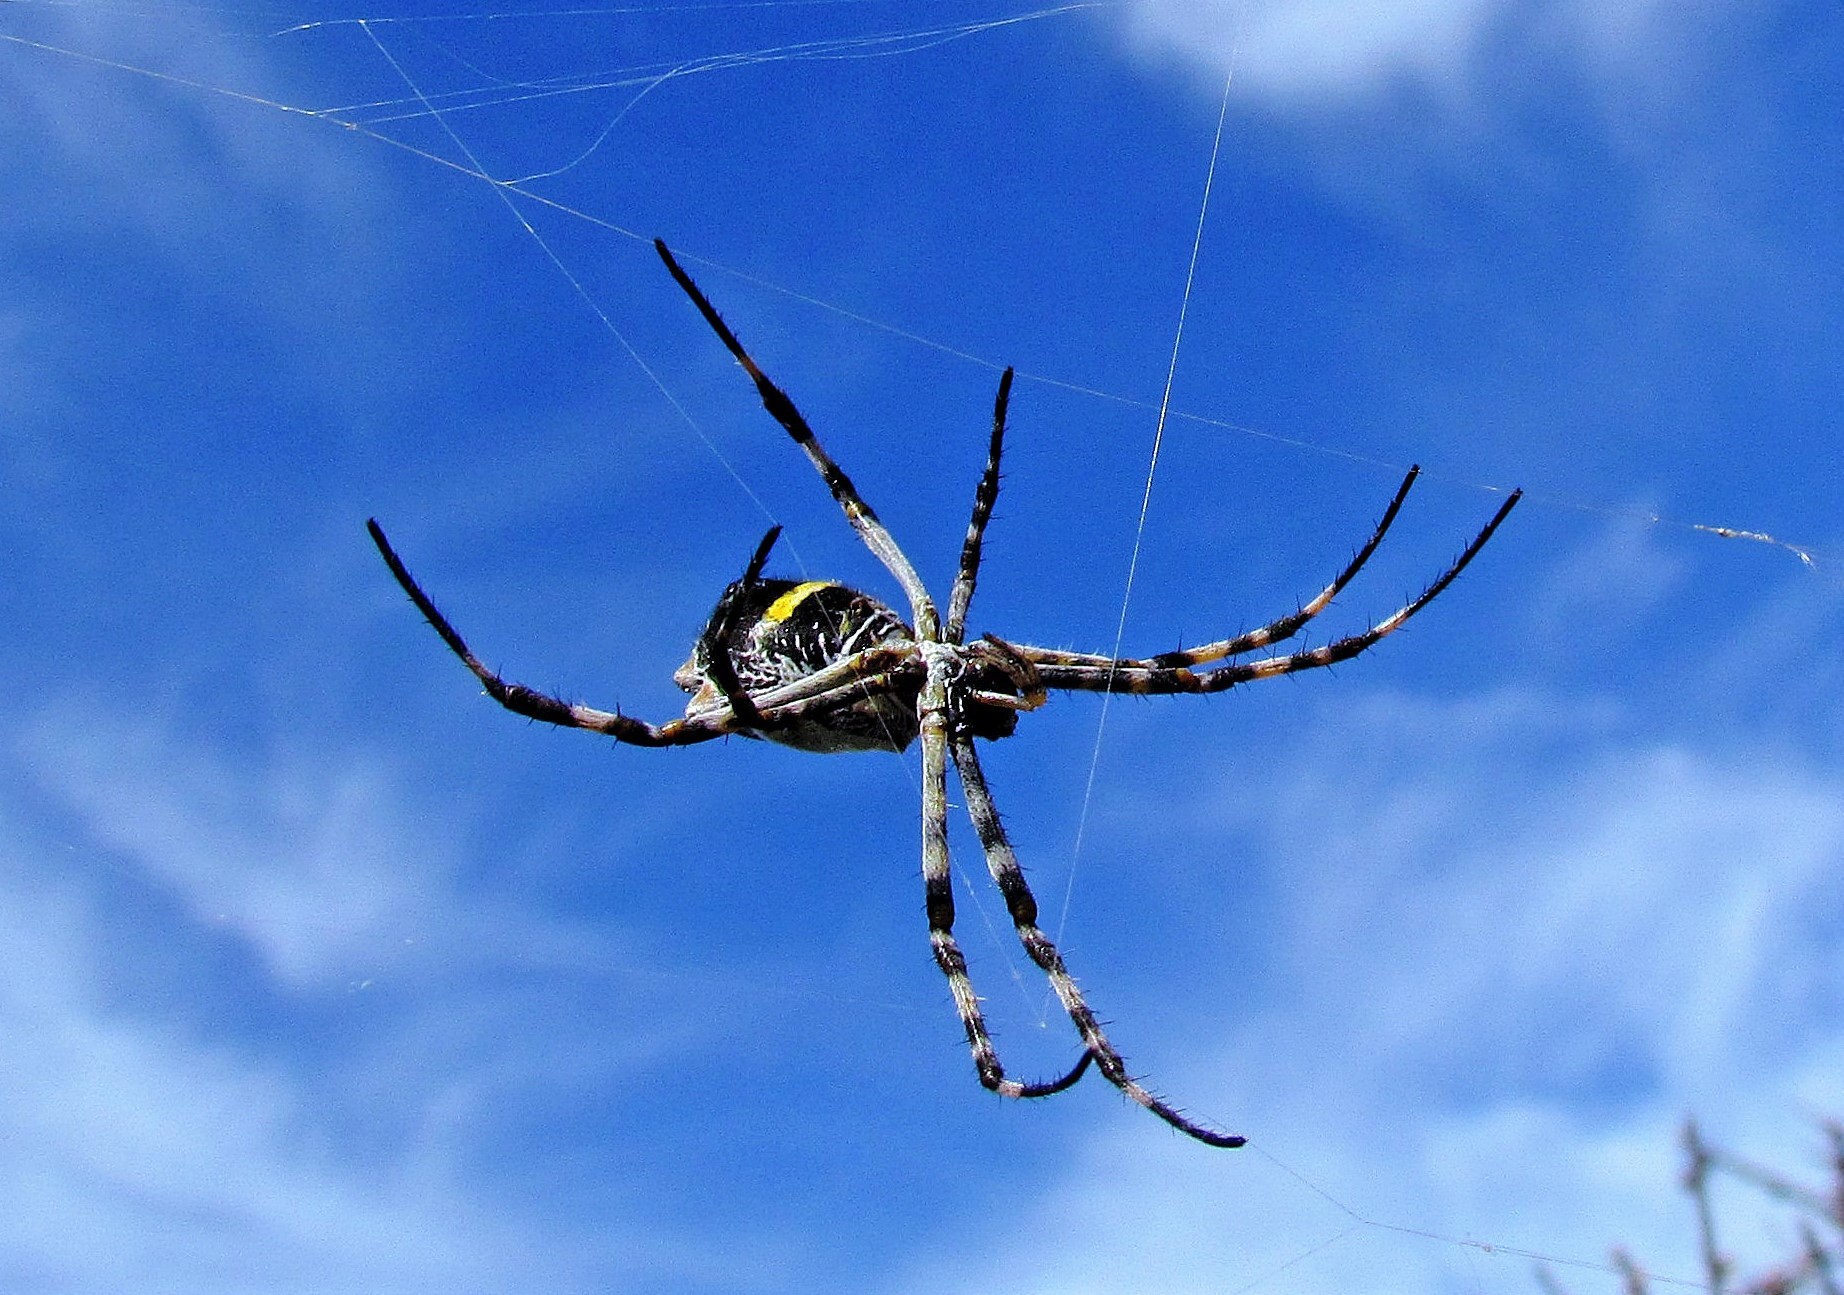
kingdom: Animalia
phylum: Arthropoda
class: Arachnida
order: Araneae
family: Araneidae
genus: Argiope
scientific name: Argiope argentata
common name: Orb weavers
